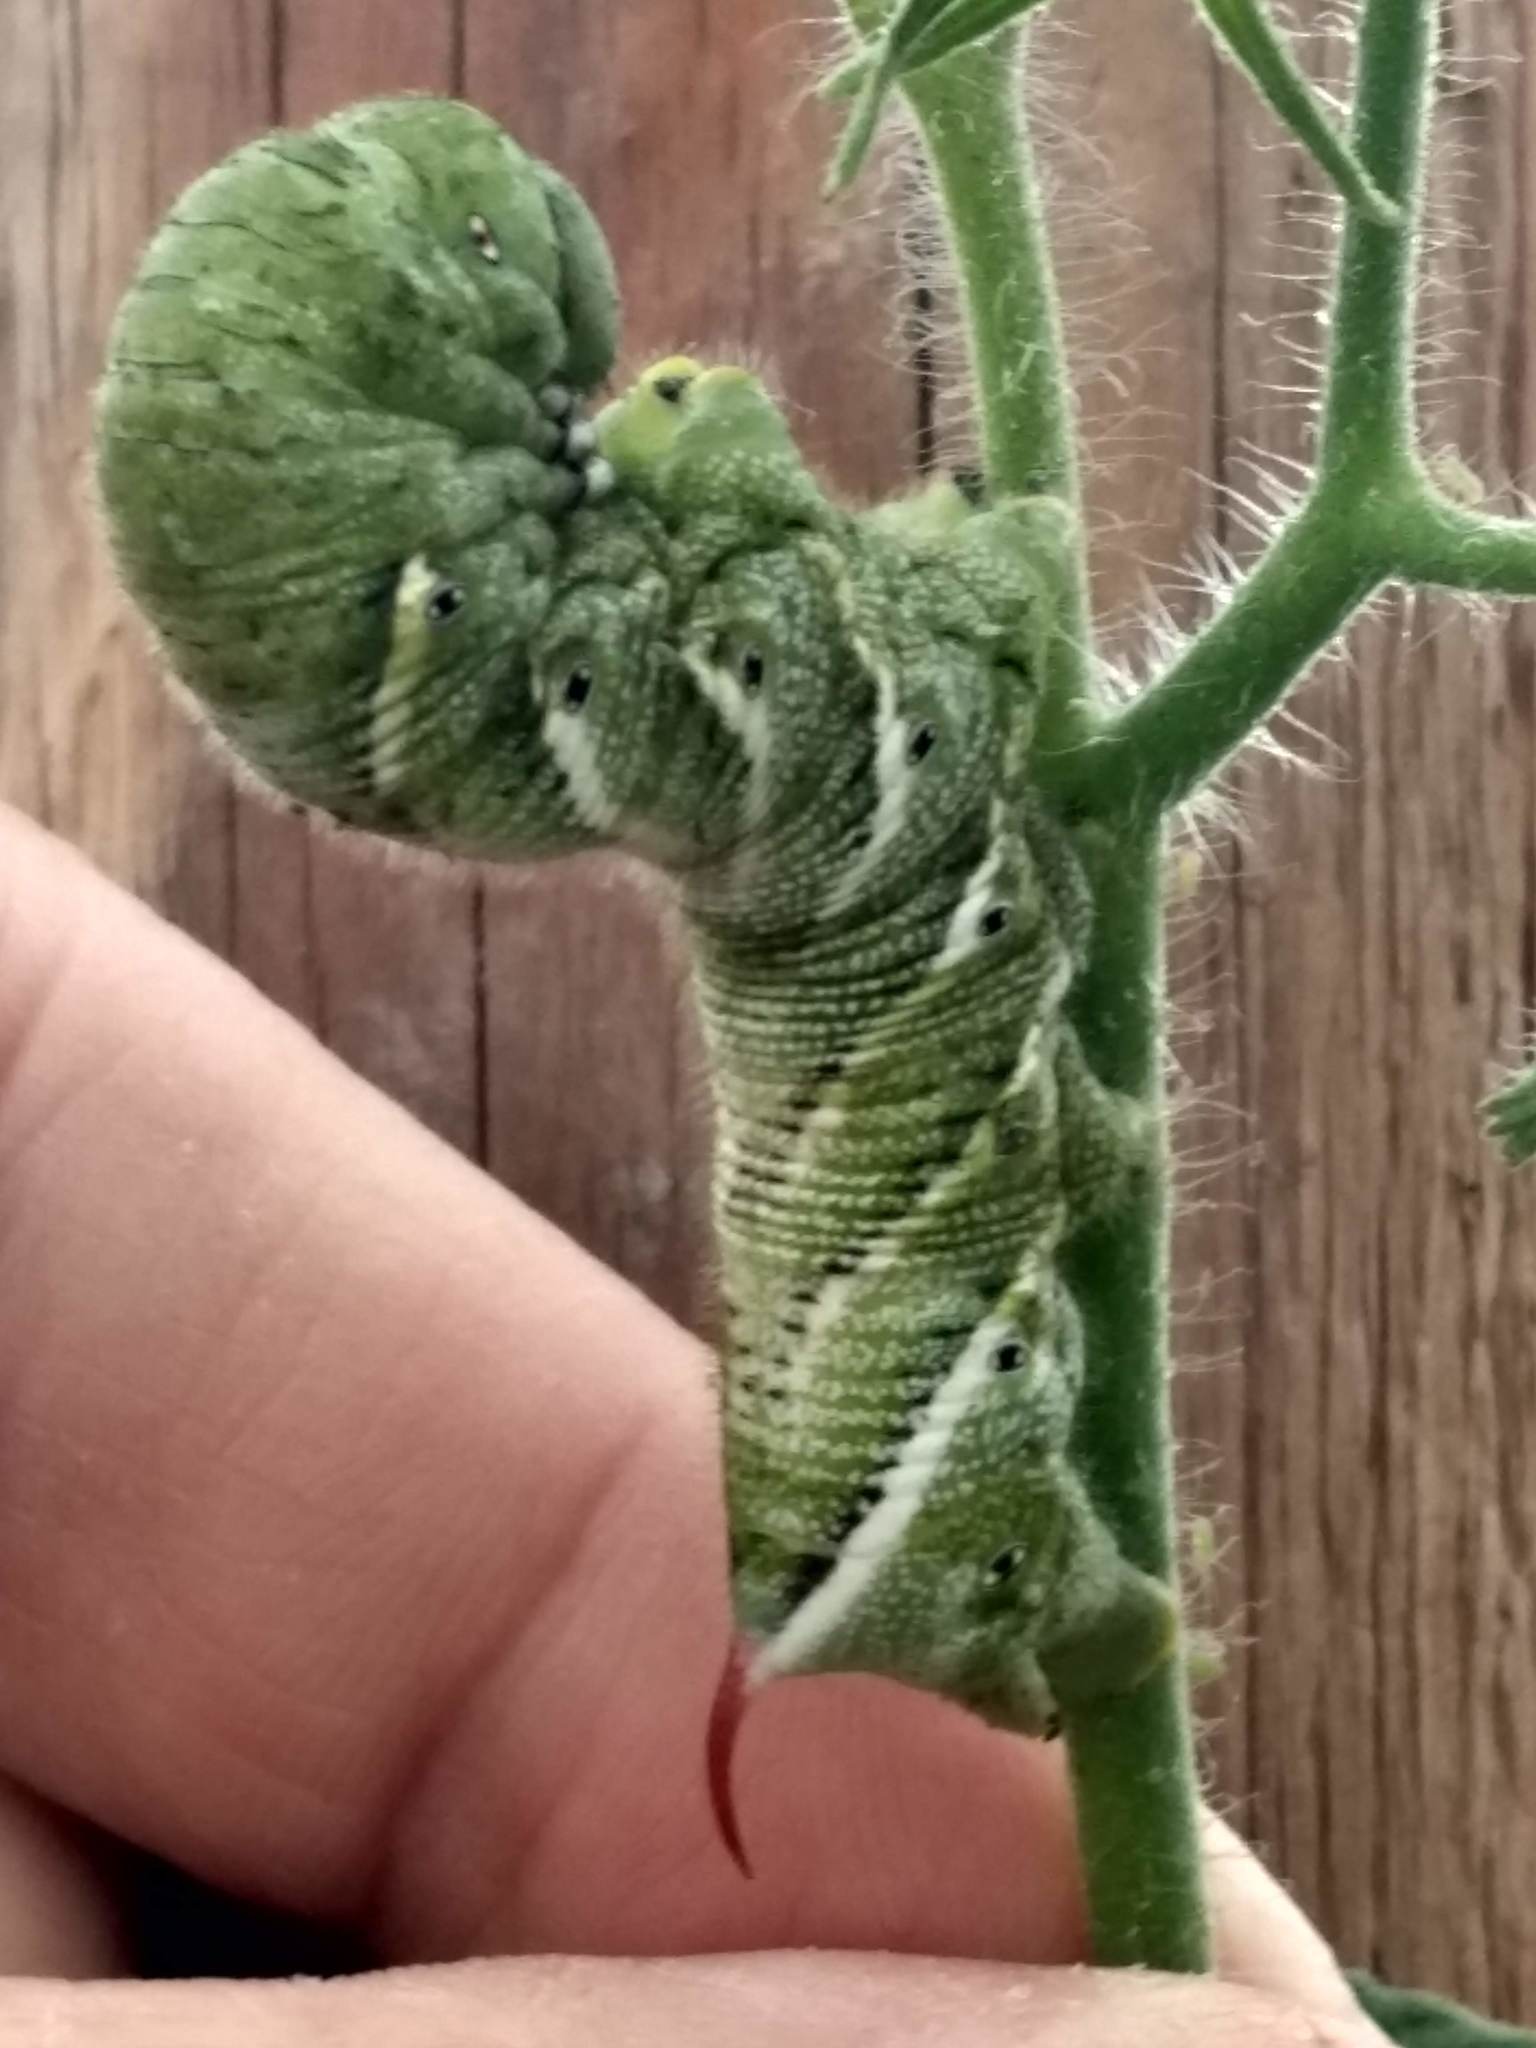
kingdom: Animalia
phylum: Arthropoda
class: Insecta
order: Lepidoptera
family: Sphingidae
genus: Manduca
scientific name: Manduca sexta
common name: Carolina sphinx
